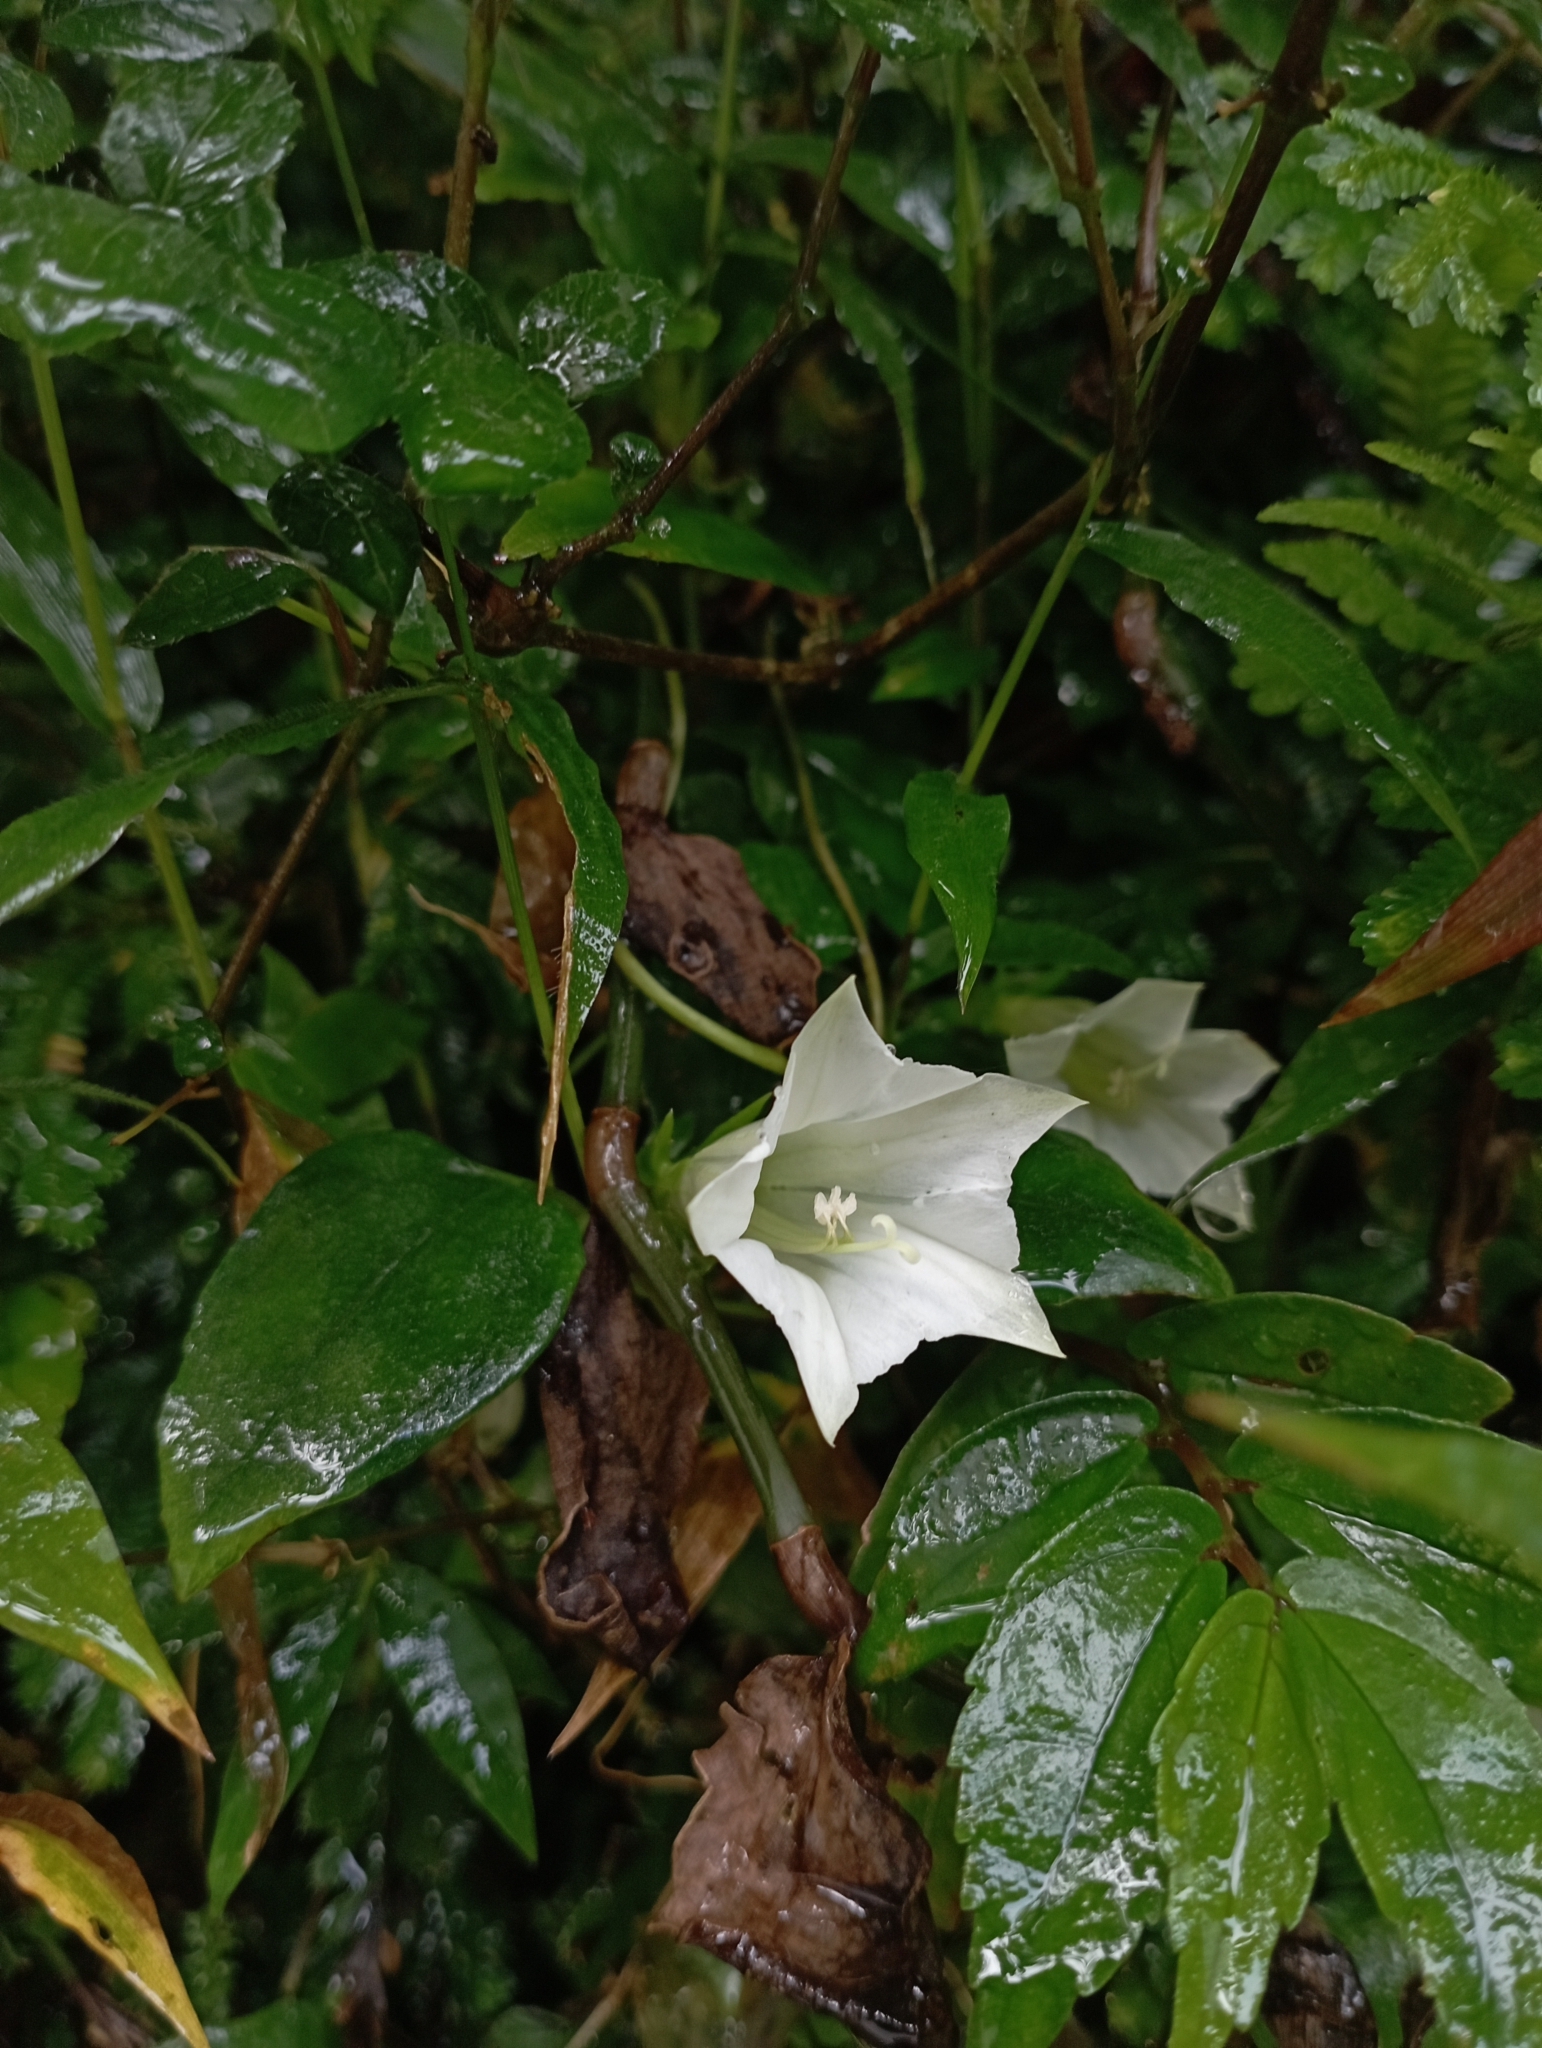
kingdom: Plantae
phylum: Tracheophyta
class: Magnoliopsida
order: Gentianales
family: Gentianaceae
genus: Tripterospermum
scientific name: Tripterospermum alutaceifolium
